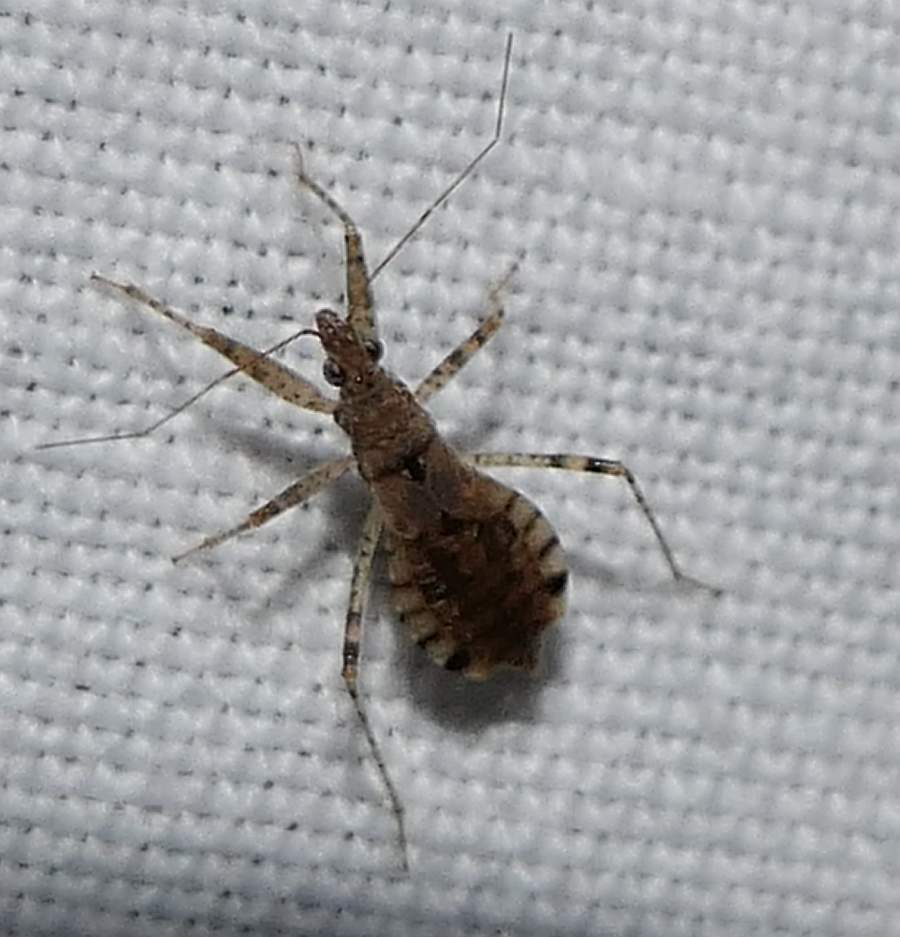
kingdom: Animalia
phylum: Arthropoda
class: Insecta
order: Hemiptera
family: Nabidae
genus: Hoplistoscelis
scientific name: Hoplistoscelis pallescens
